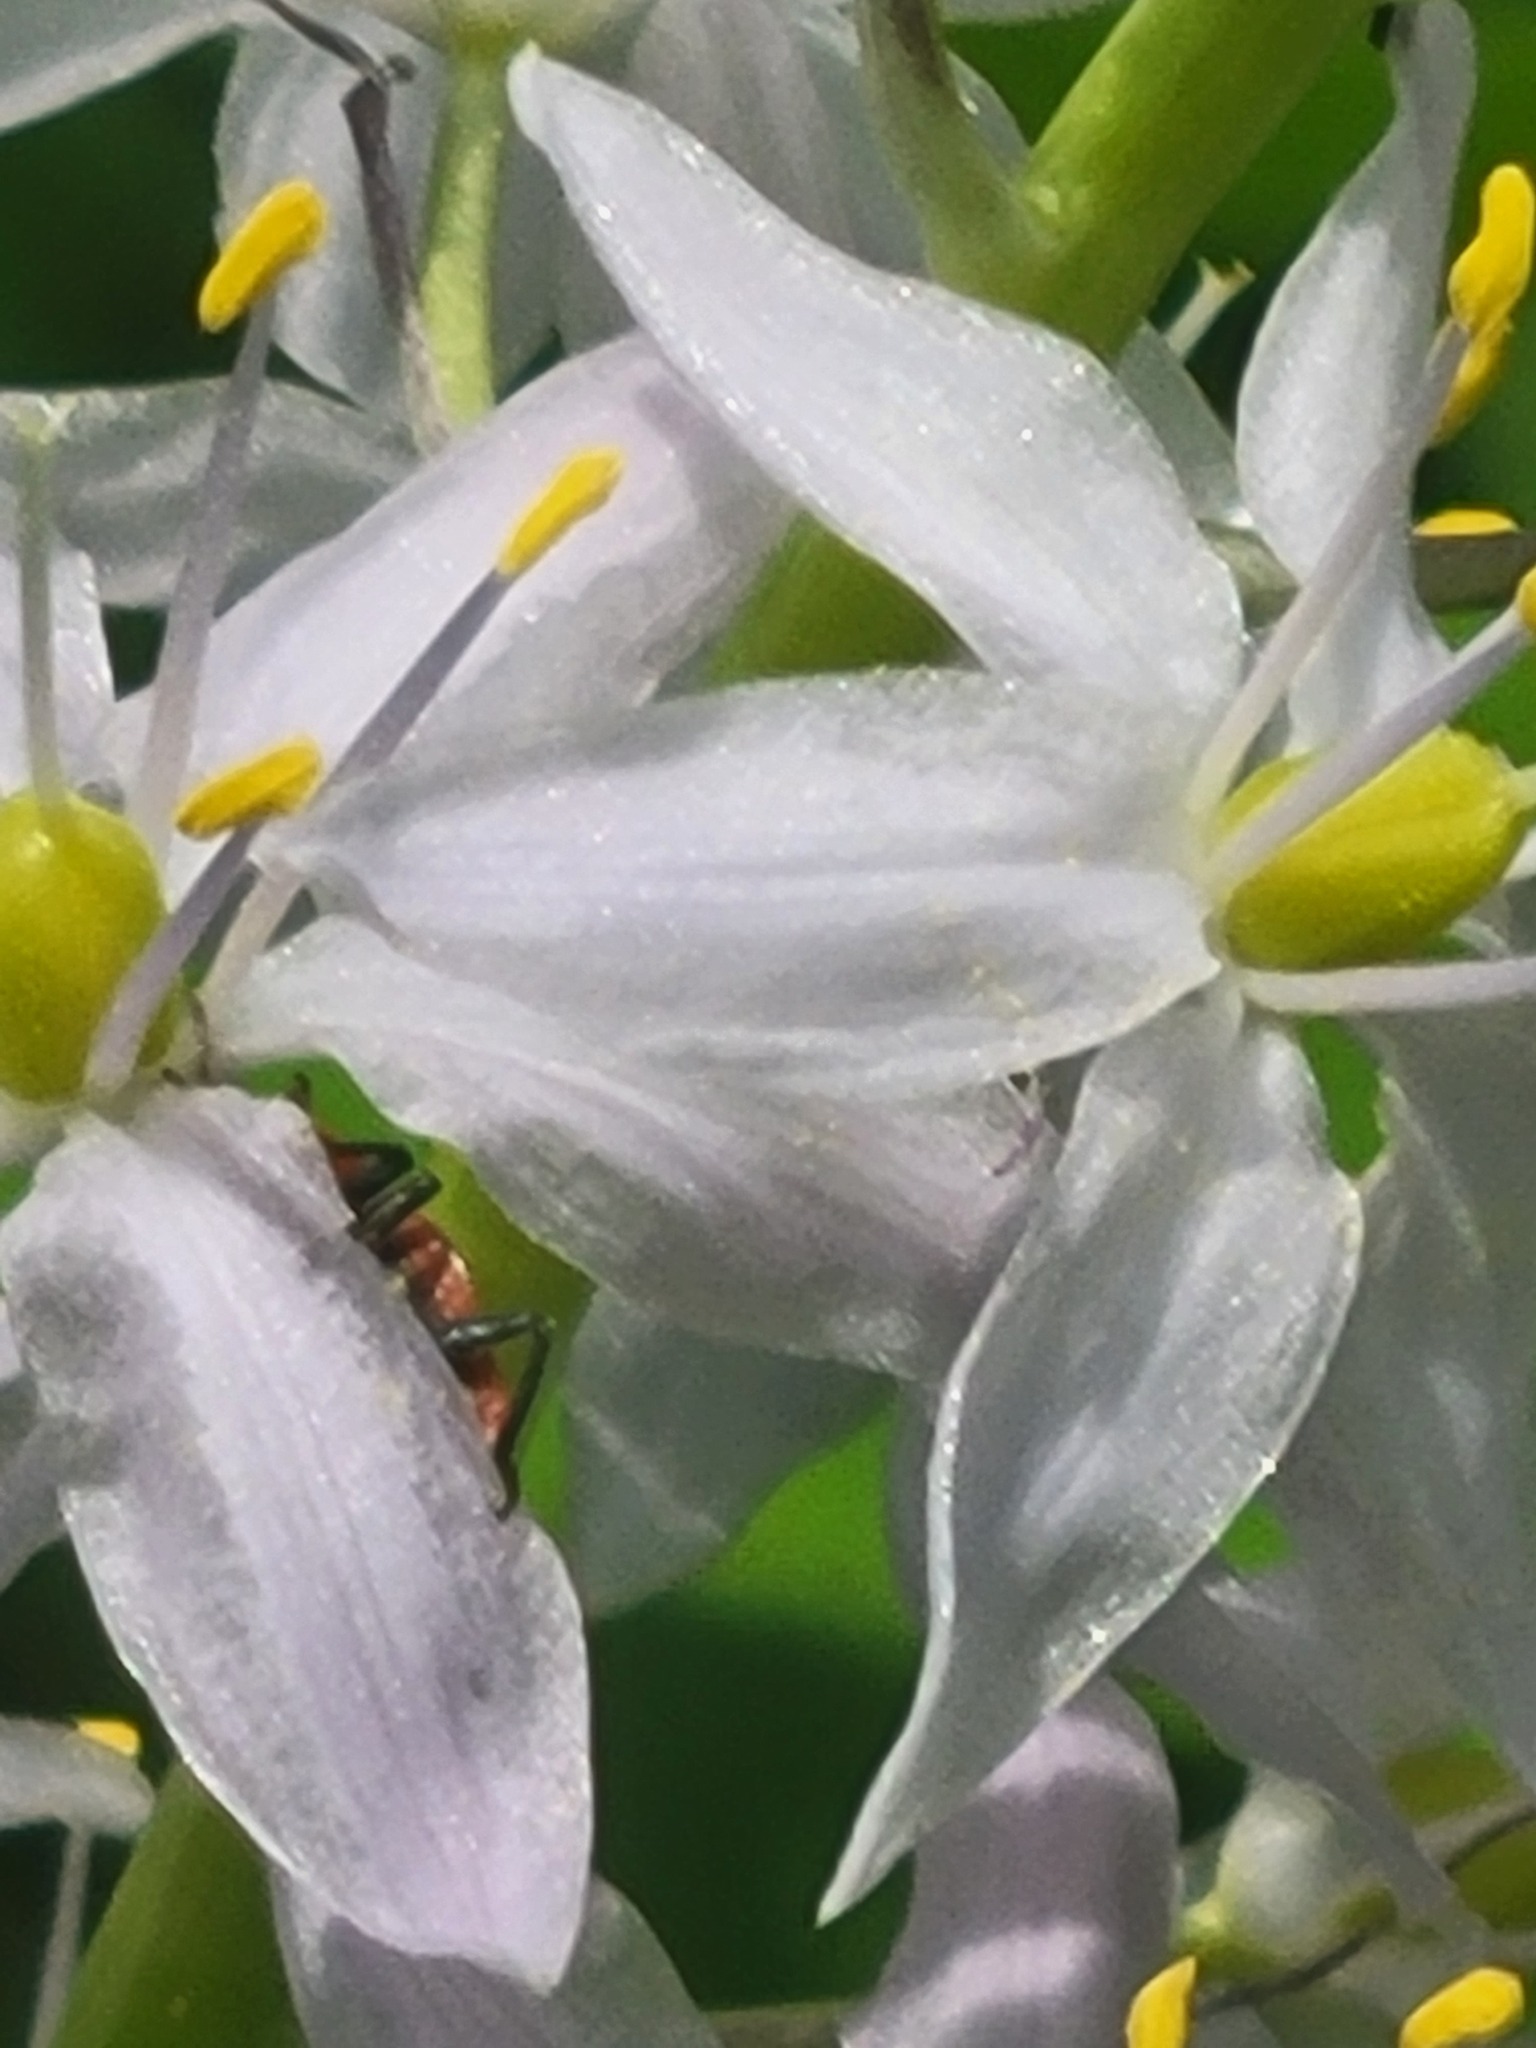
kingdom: Plantae
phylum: Tracheophyta
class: Liliopsida
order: Asparagales
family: Asparagaceae
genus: Camassia
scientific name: Camassia scilloides
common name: Wild hyacinth
